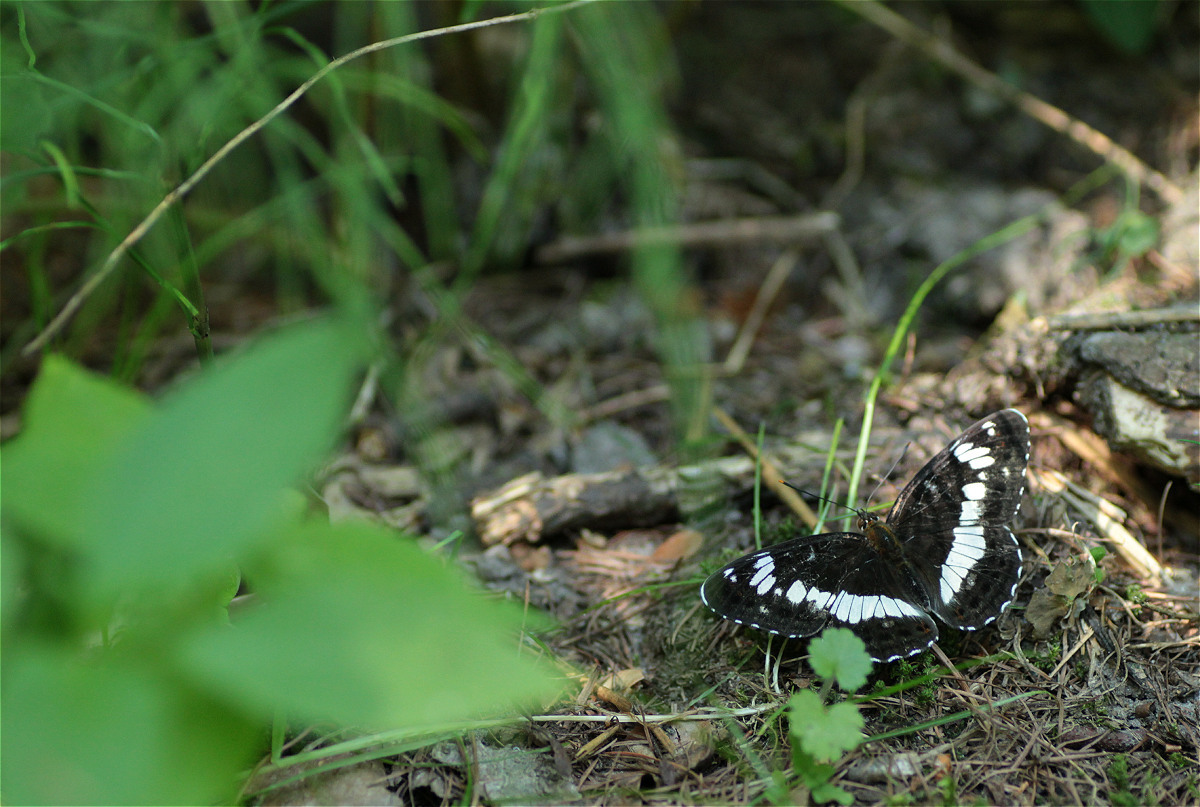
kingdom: Animalia
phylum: Arthropoda
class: Insecta
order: Lepidoptera
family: Nymphalidae
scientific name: Nymphalidae
